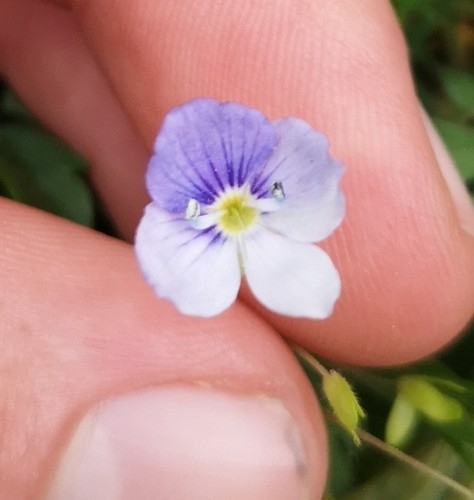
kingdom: Plantae
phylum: Tracheophyta
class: Magnoliopsida
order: Lamiales
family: Plantaginaceae
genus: Veronica
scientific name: Veronica filiformis
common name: Slender speedwell
